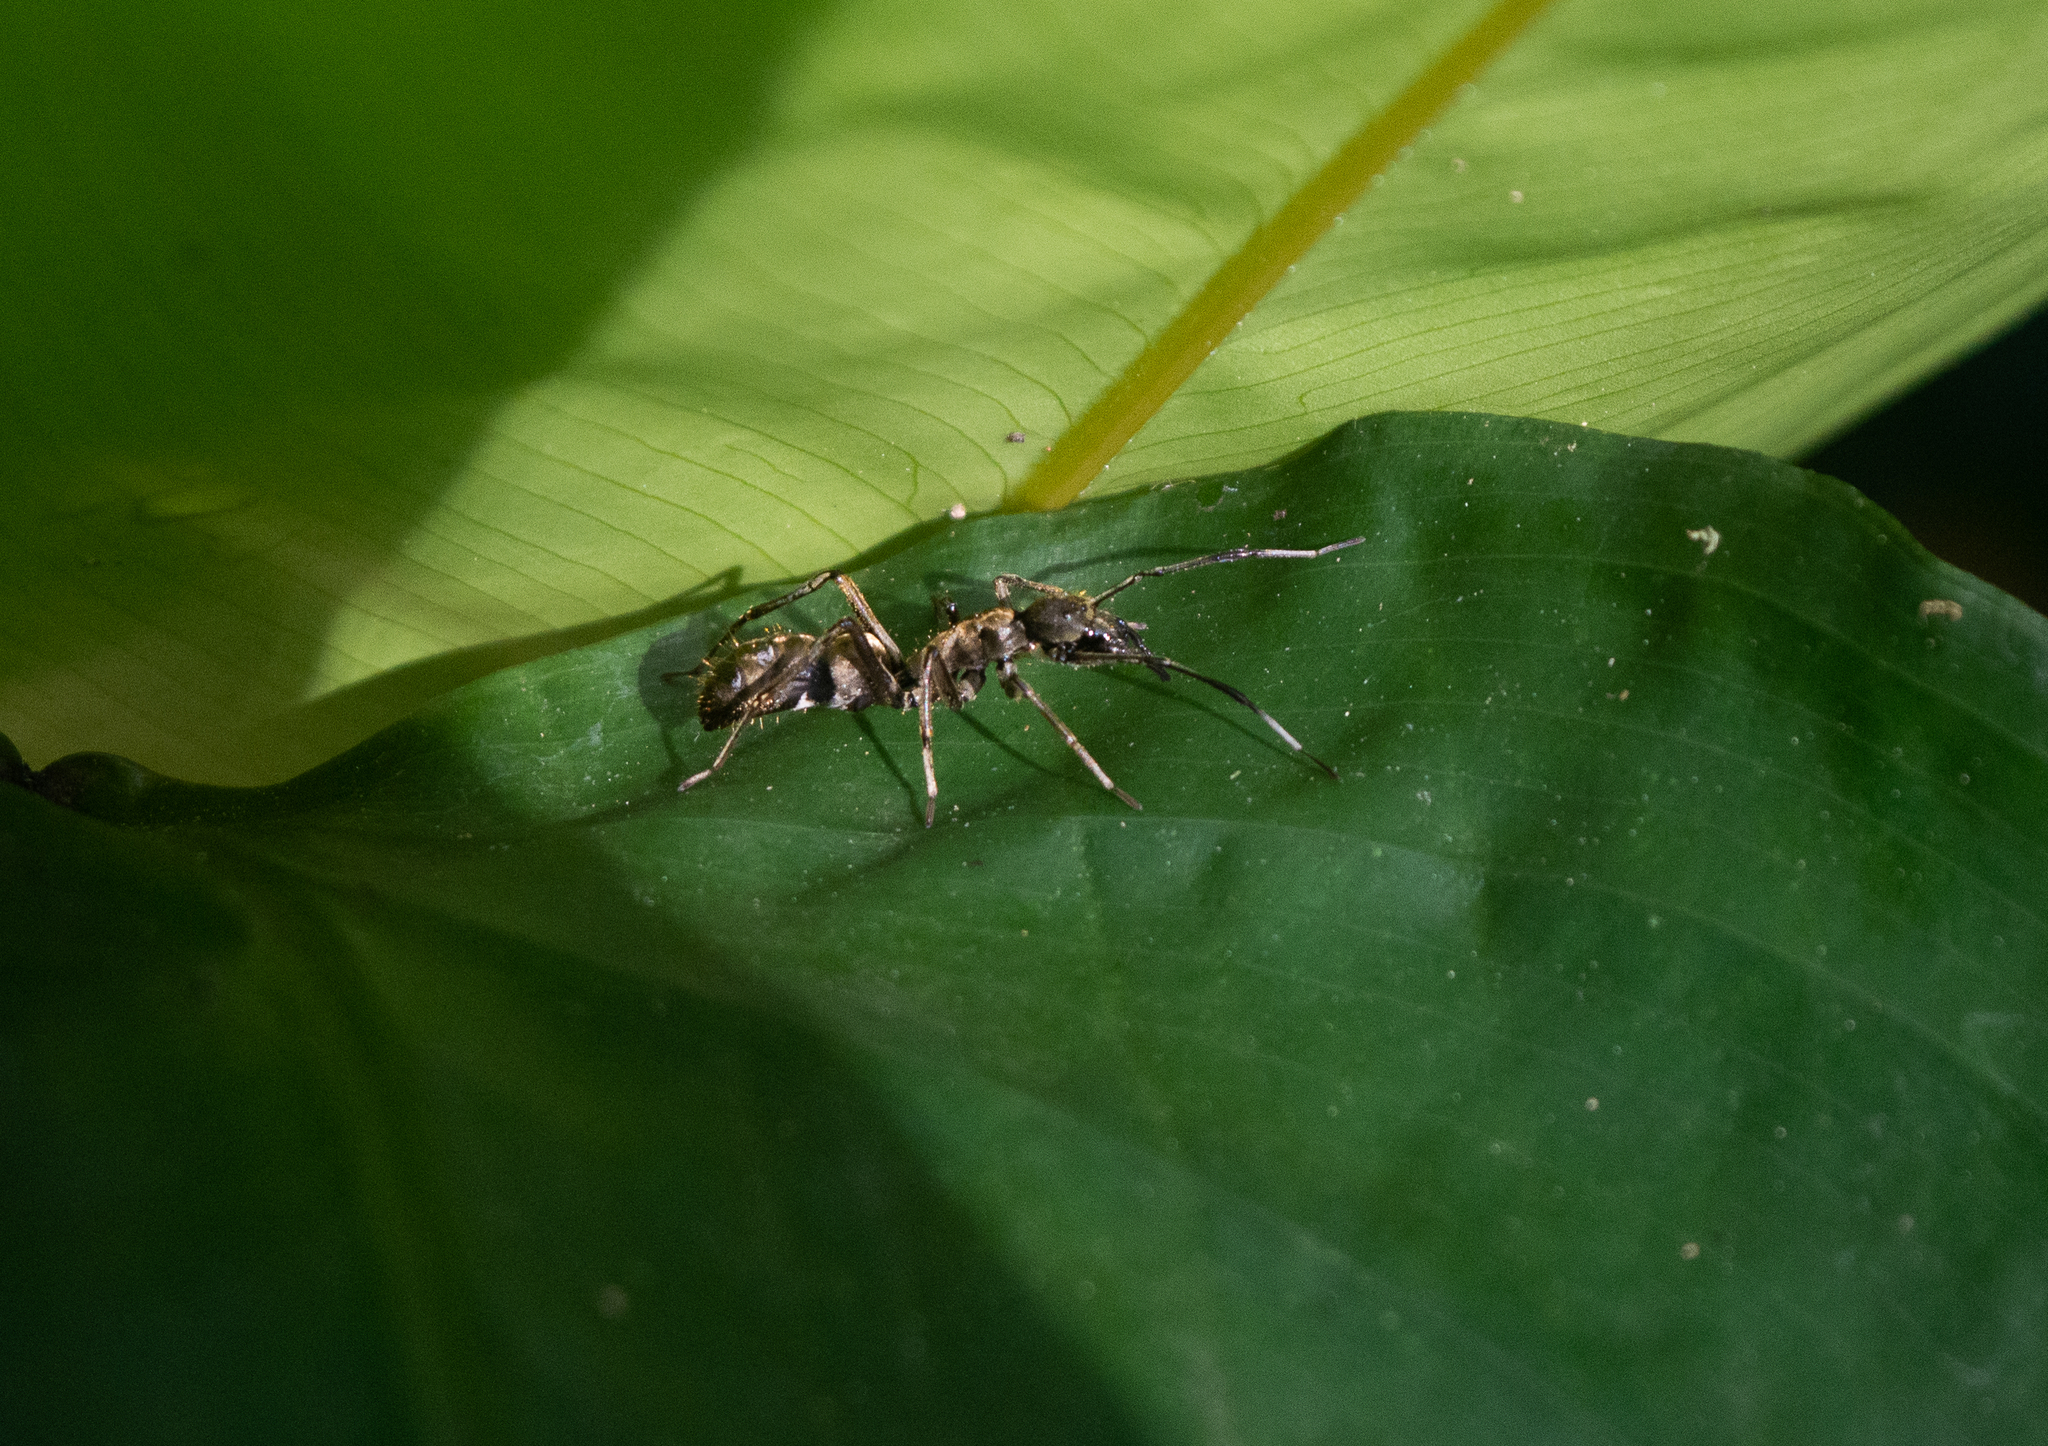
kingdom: Animalia
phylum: Arthropoda
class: Arachnida
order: Araneae
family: Corinnidae
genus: Sphecotypus
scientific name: Sphecotypus niger
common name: Corinnid sac spiders
